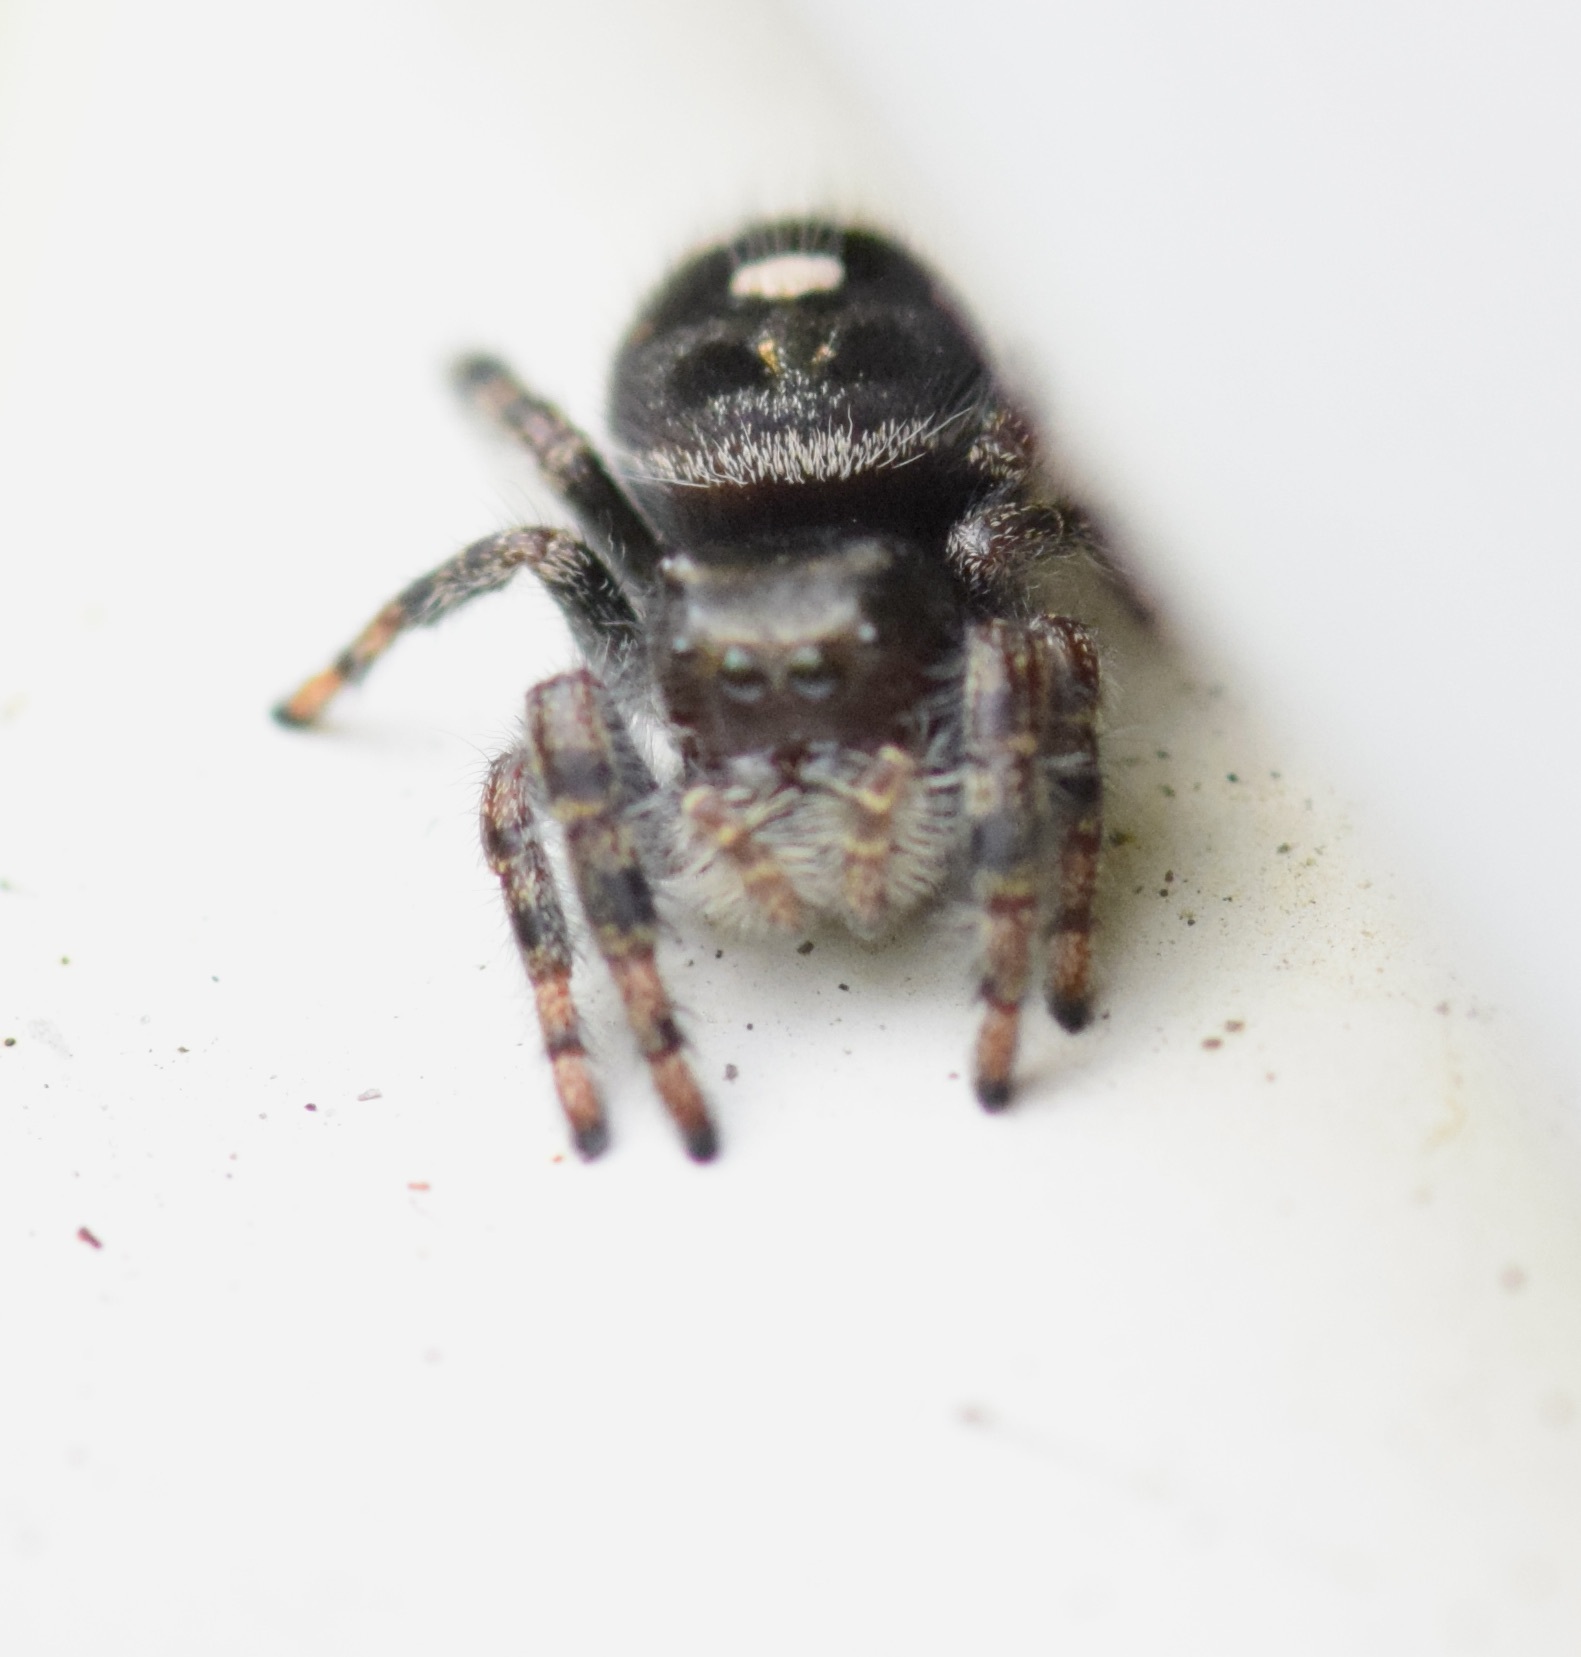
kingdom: Animalia
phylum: Arthropoda
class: Arachnida
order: Araneae
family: Salticidae
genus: Phidippus
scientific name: Phidippus audax
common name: Bold jumper
